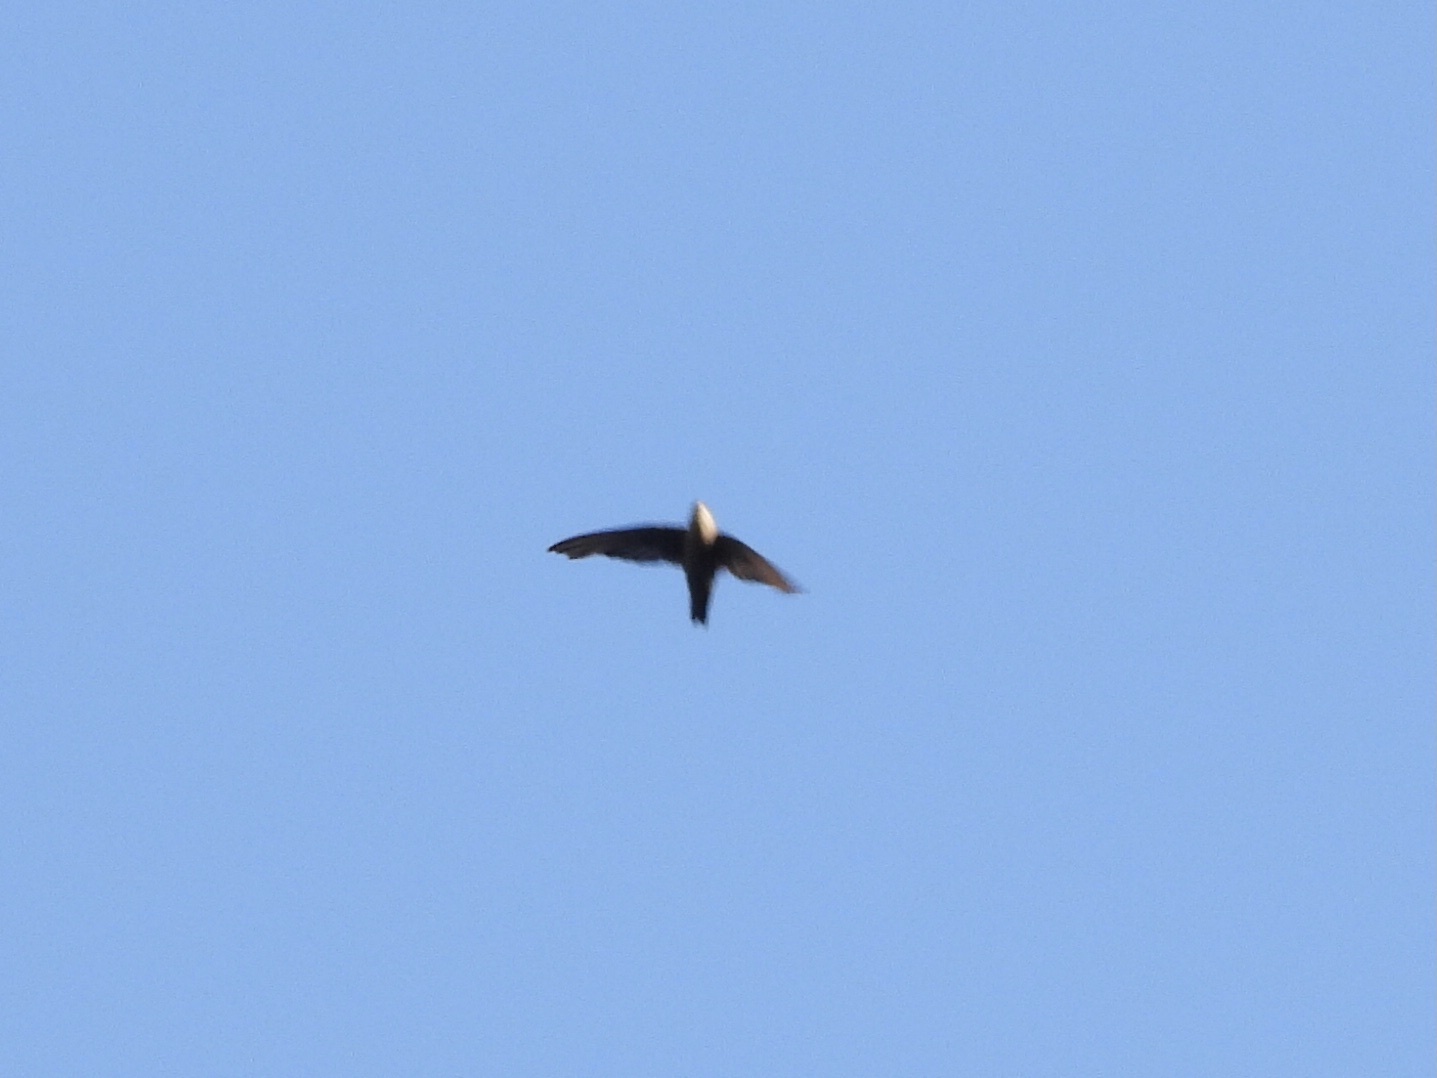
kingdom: Animalia
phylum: Chordata
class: Aves
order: Apodiformes
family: Apodidae
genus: Chaetura
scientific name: Chaetura vauxi
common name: Vaux's swift
